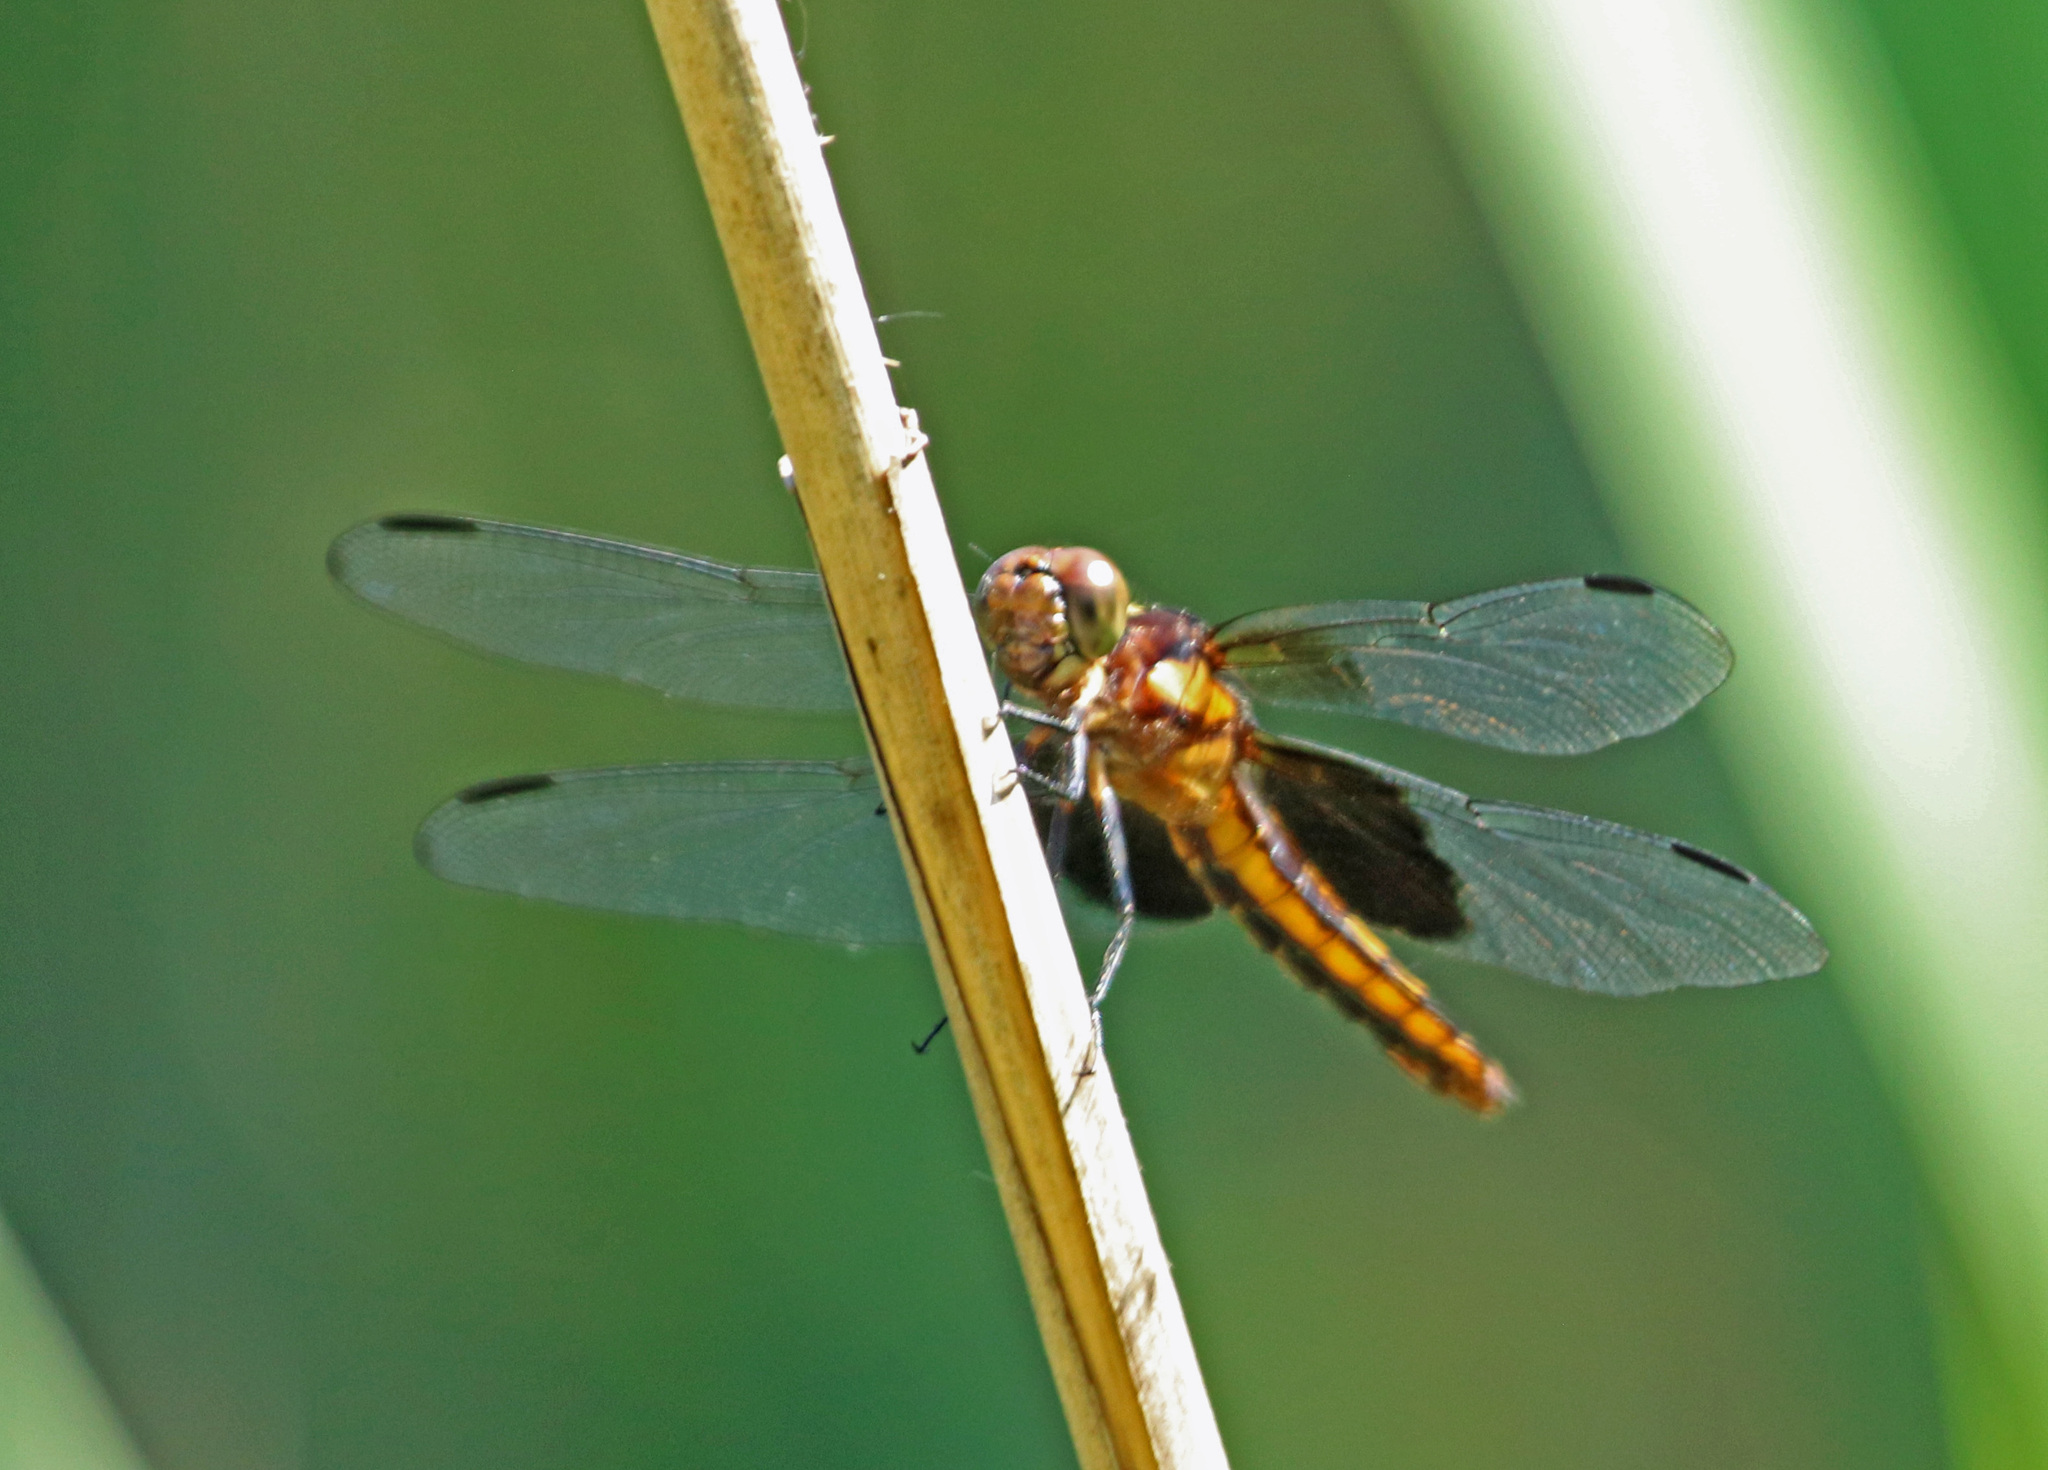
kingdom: Animalia
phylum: Arthropoda
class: Insecta
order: Odonata
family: Libellulidae
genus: Libellula
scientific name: Libellula luctuosa
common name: Widow skimmer
